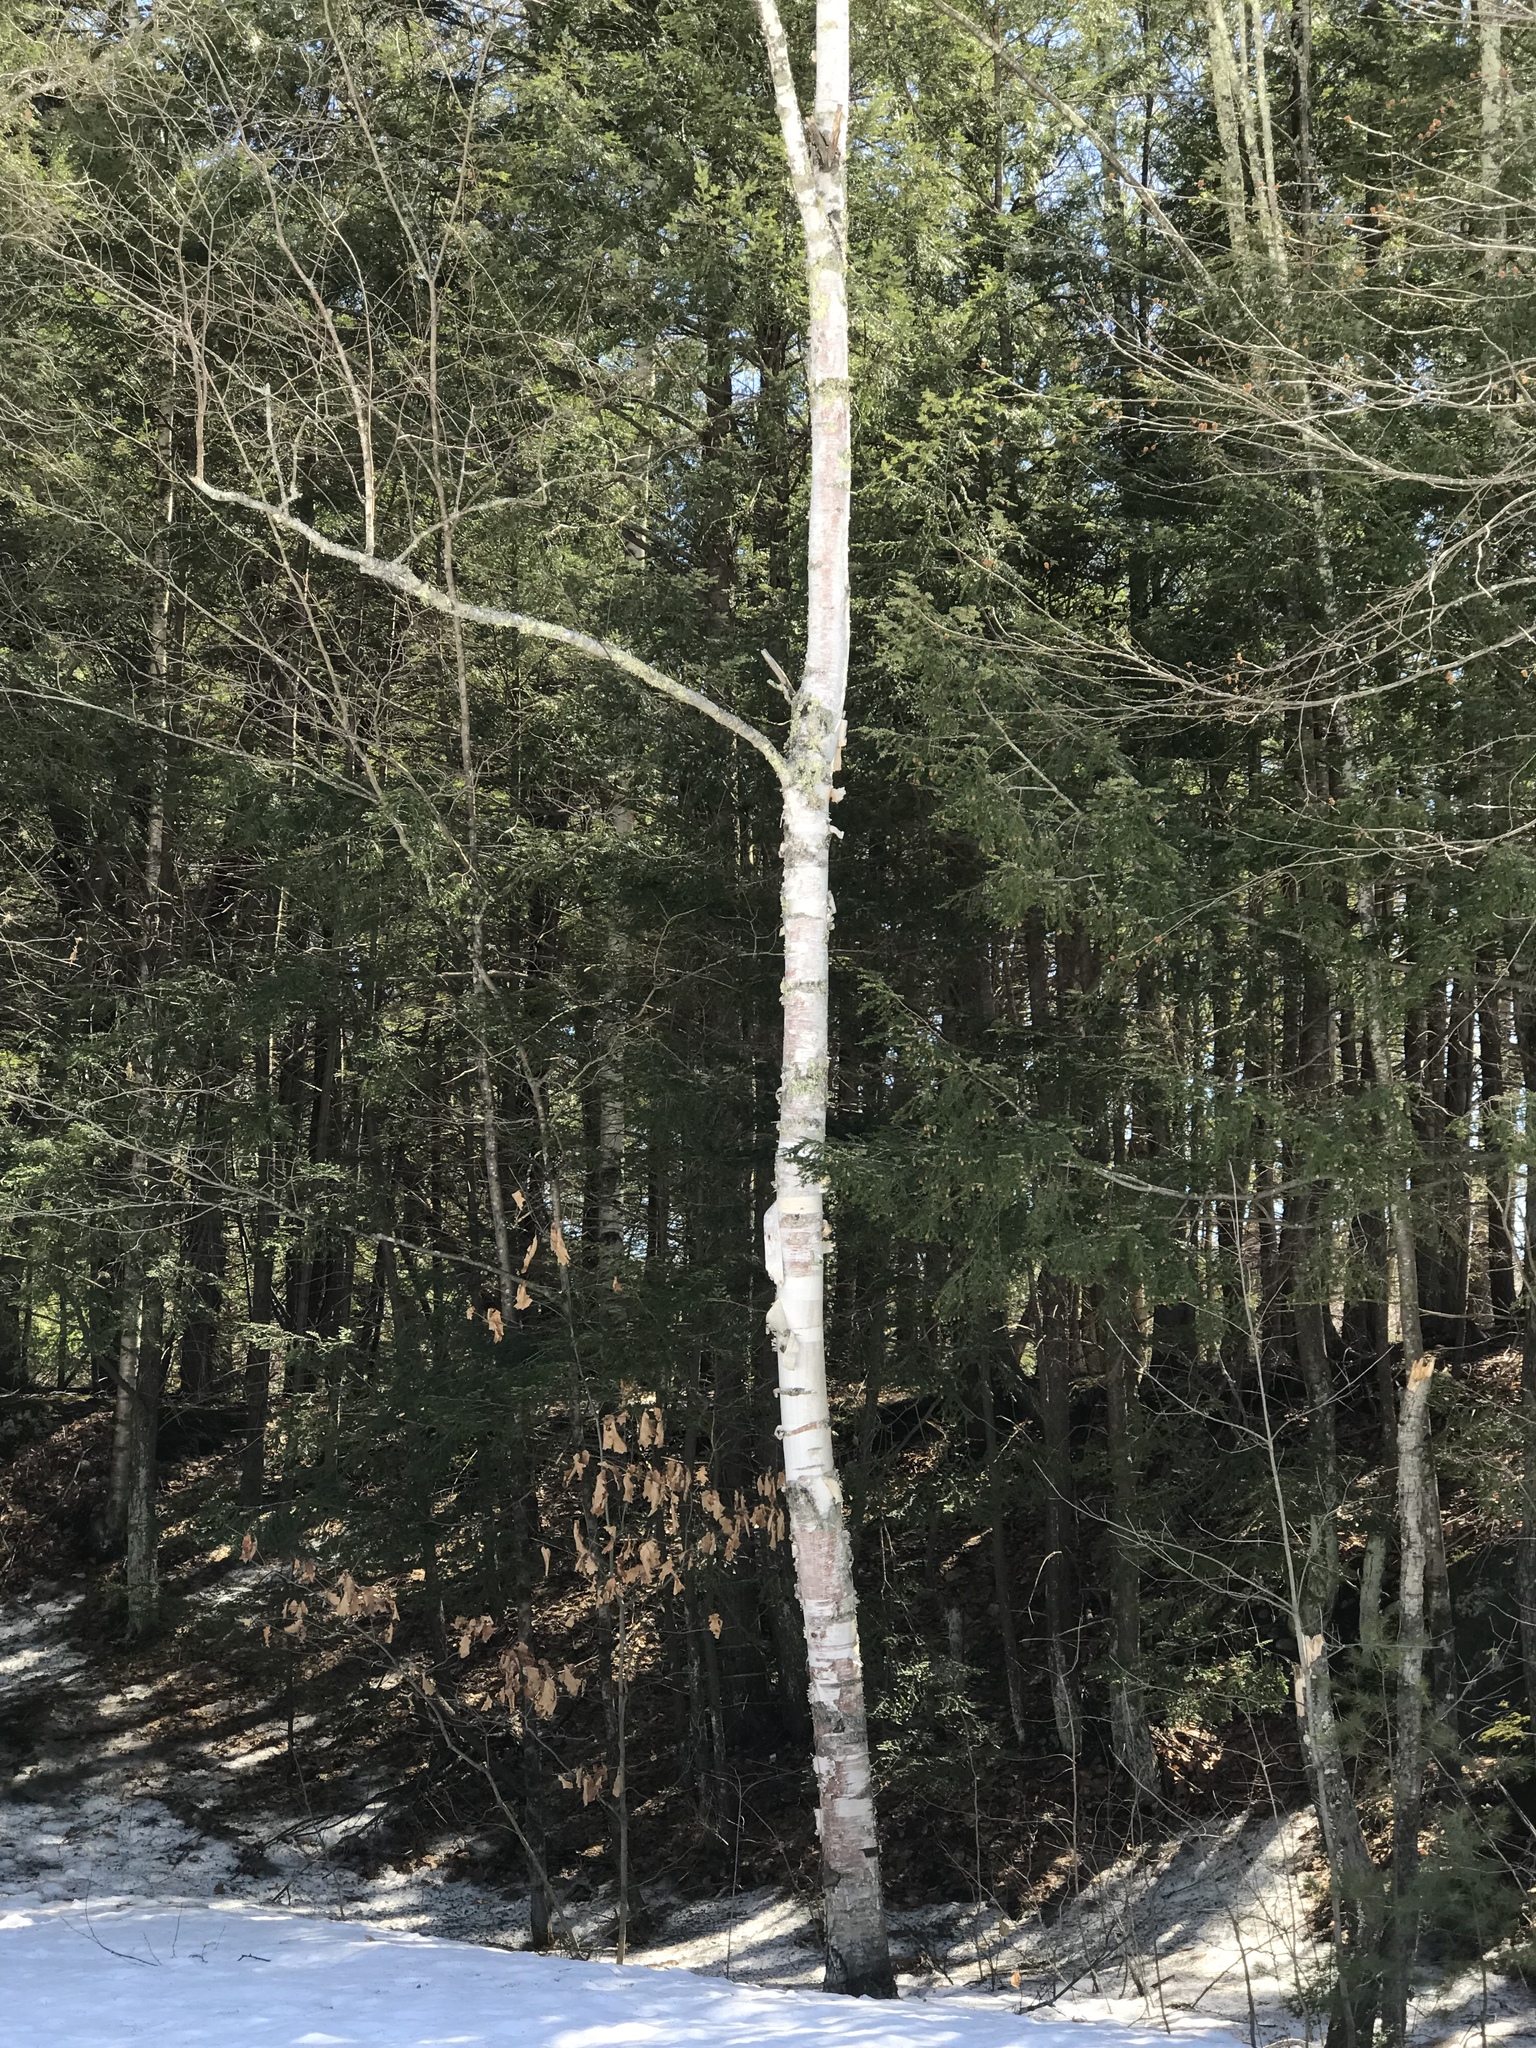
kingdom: Plantae
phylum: Tracheophyta
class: Magnoliopsida
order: Fagales
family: Betulaceae
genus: Betula
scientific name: Betula papyrifera
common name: Paper birch
